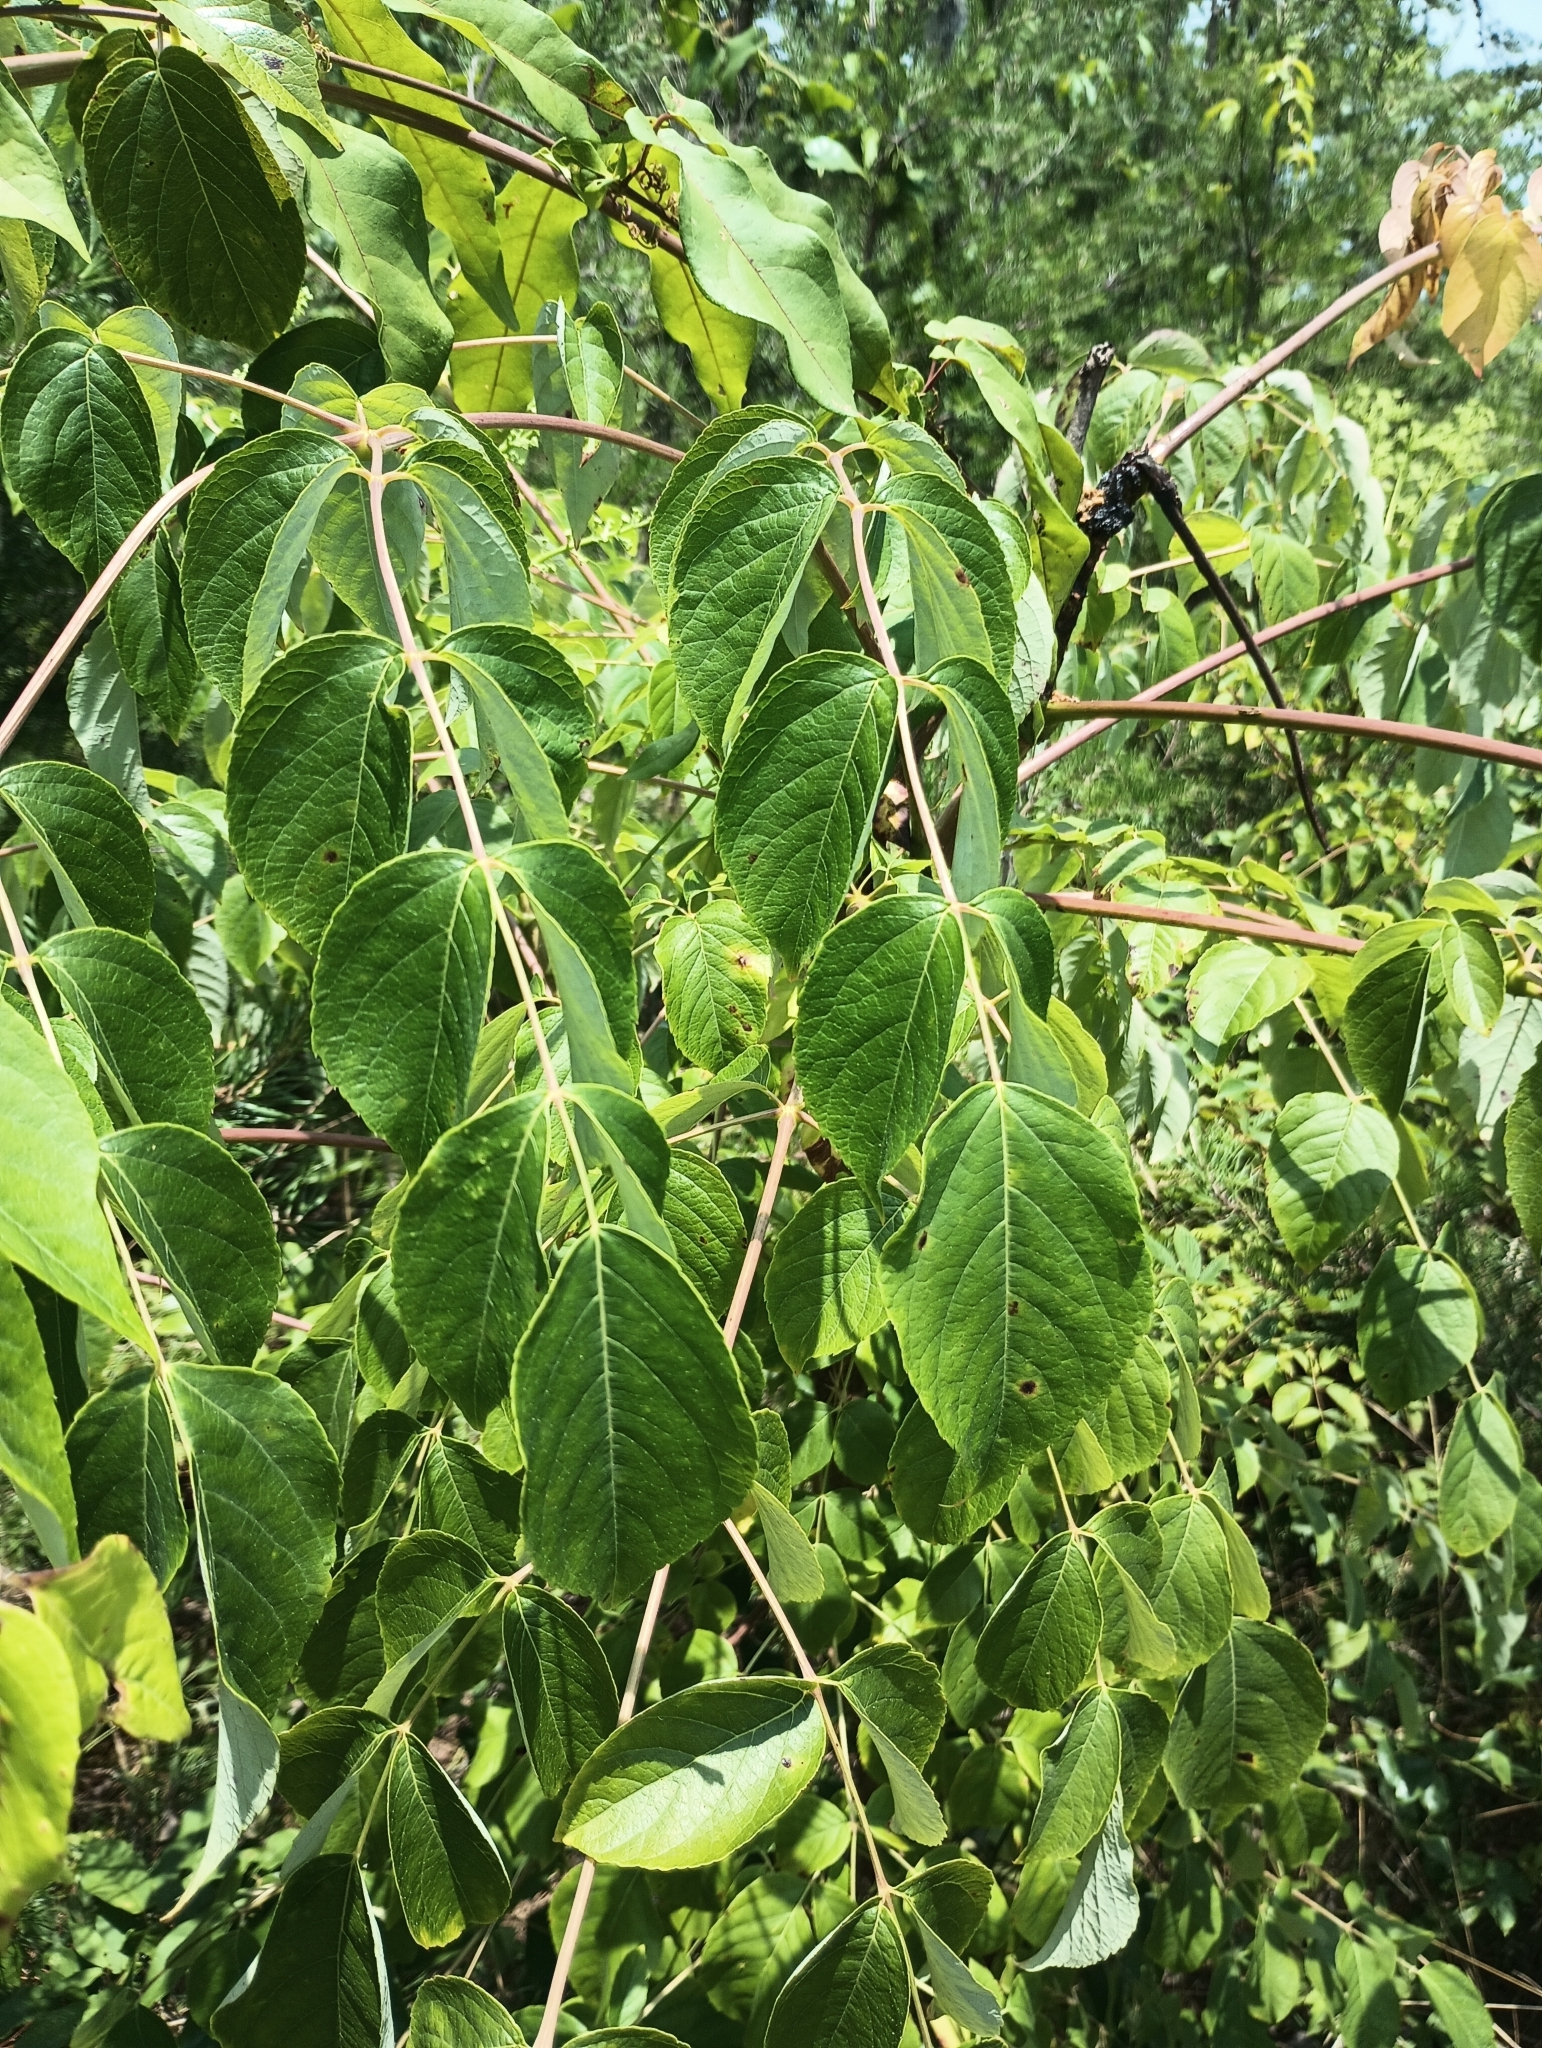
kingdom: Plantae
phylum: Tracheophyta
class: Magnoliopsida
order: Apiales
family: Araliaceae
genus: Aralia
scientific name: Aralia spinosa
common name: Hercules'-club
